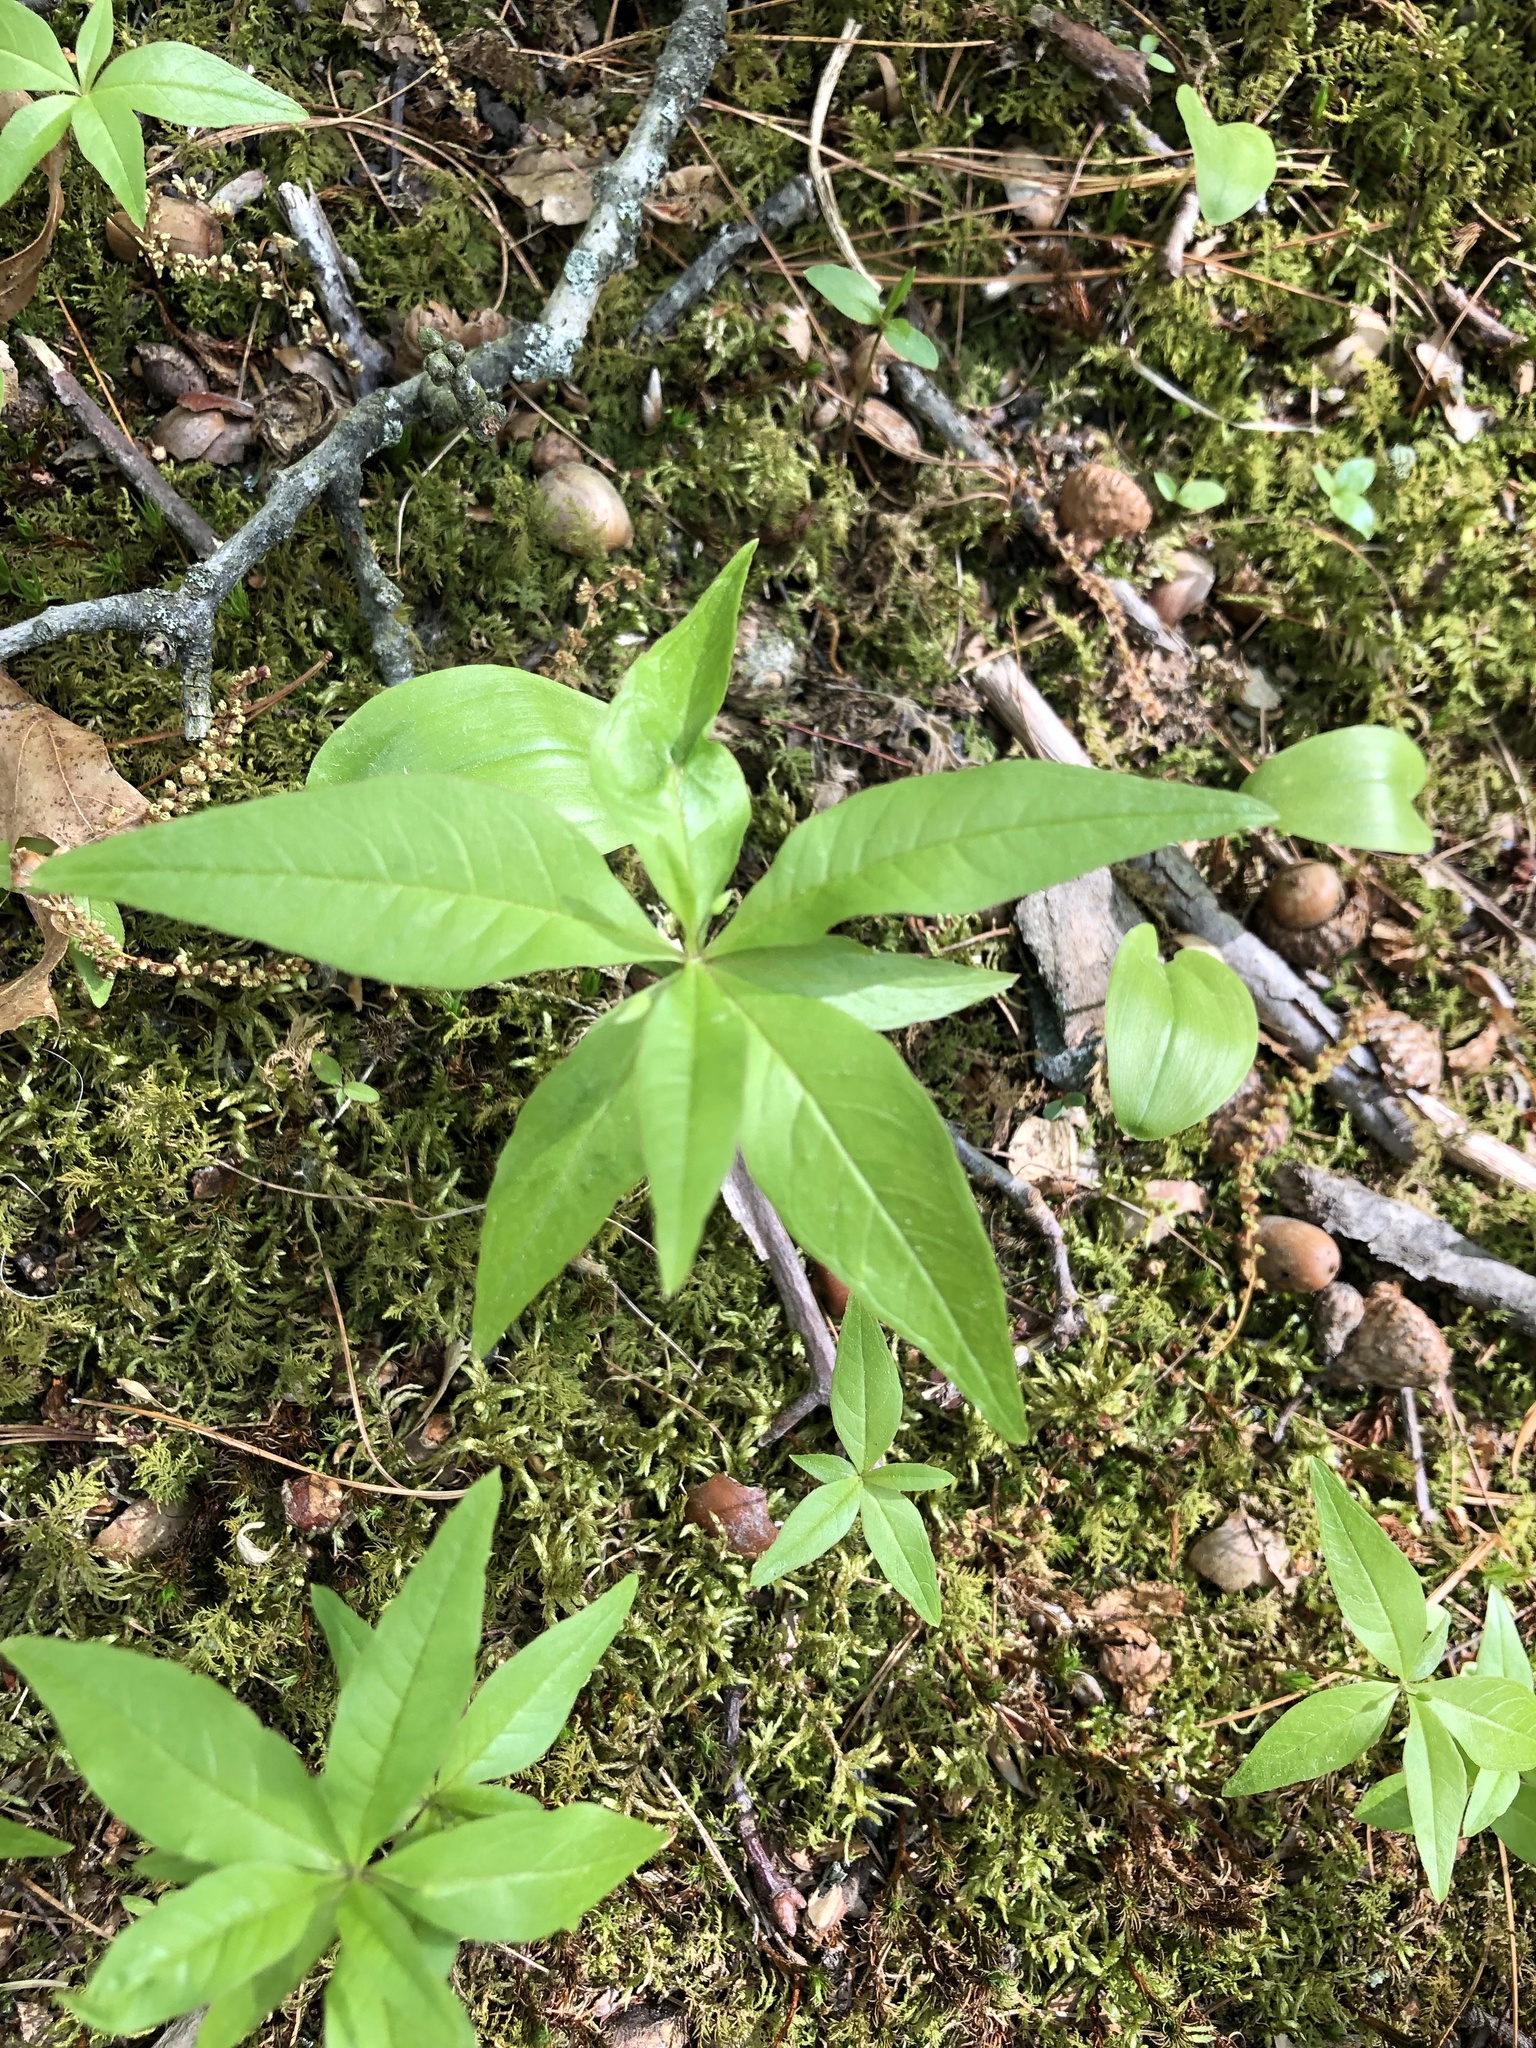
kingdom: Plantae
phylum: Tracheophyta
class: Magnoliopsida
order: Ericales
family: Primulaceae
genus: Lysimachia
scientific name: Lysimachia borealis
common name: American starflower
